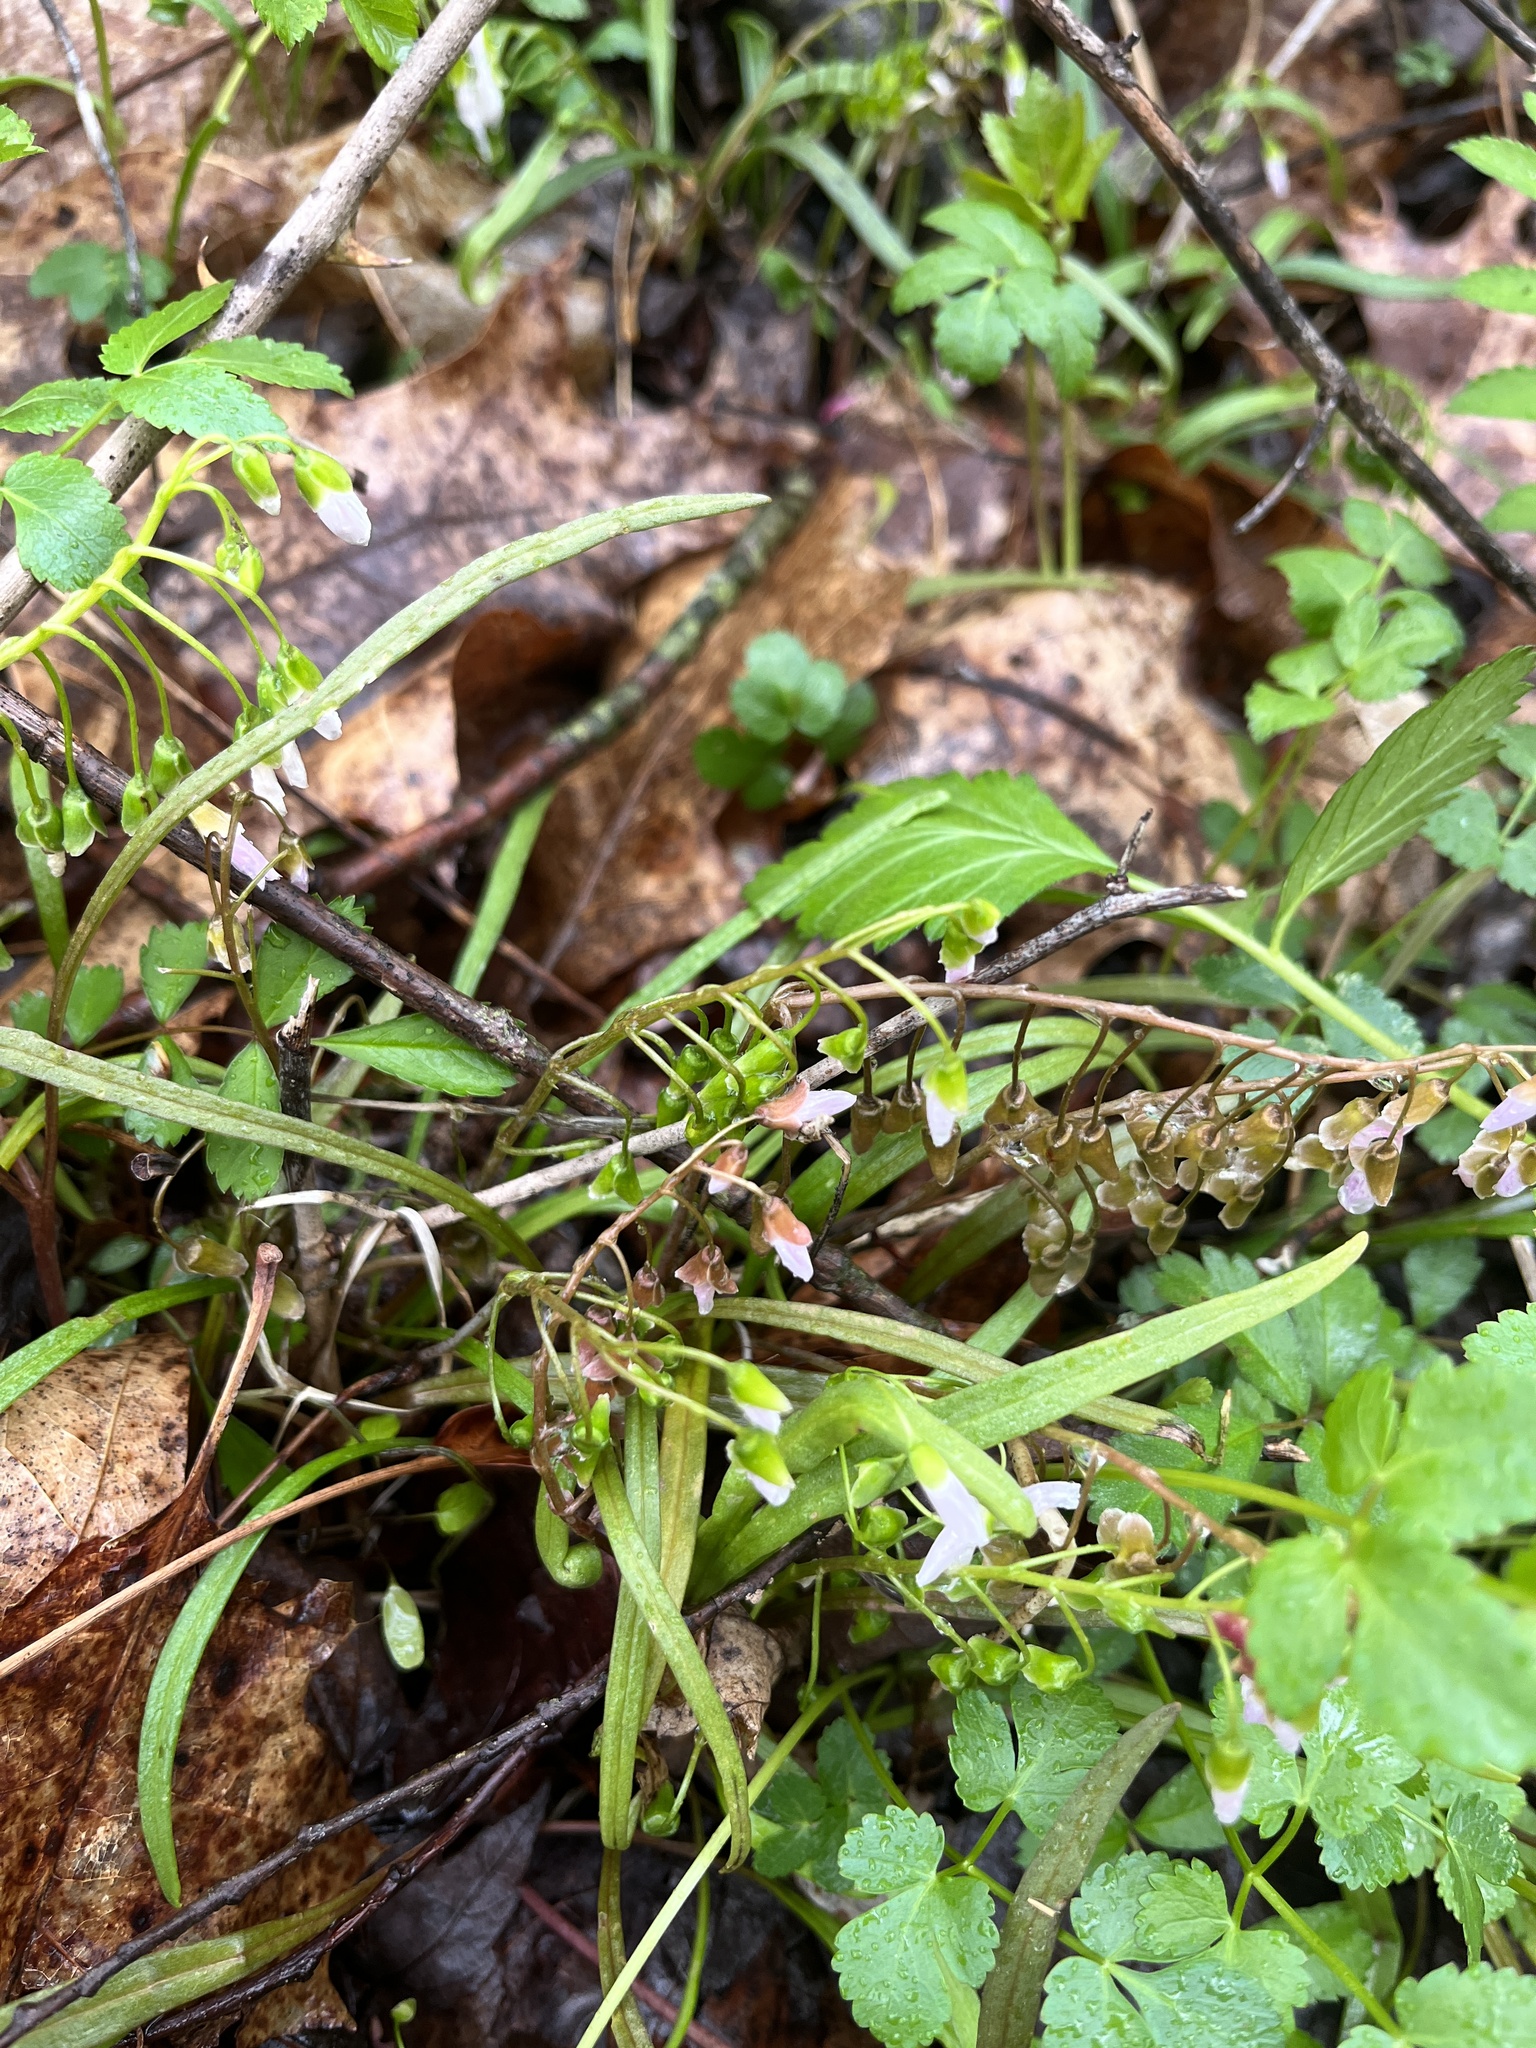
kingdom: Plantae
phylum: Tracheophyta
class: Magnoliopsida
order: Caryophyllales
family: Montiaceae
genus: Claytonia
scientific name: Claytonia virginica
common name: Virginia springbeauty
